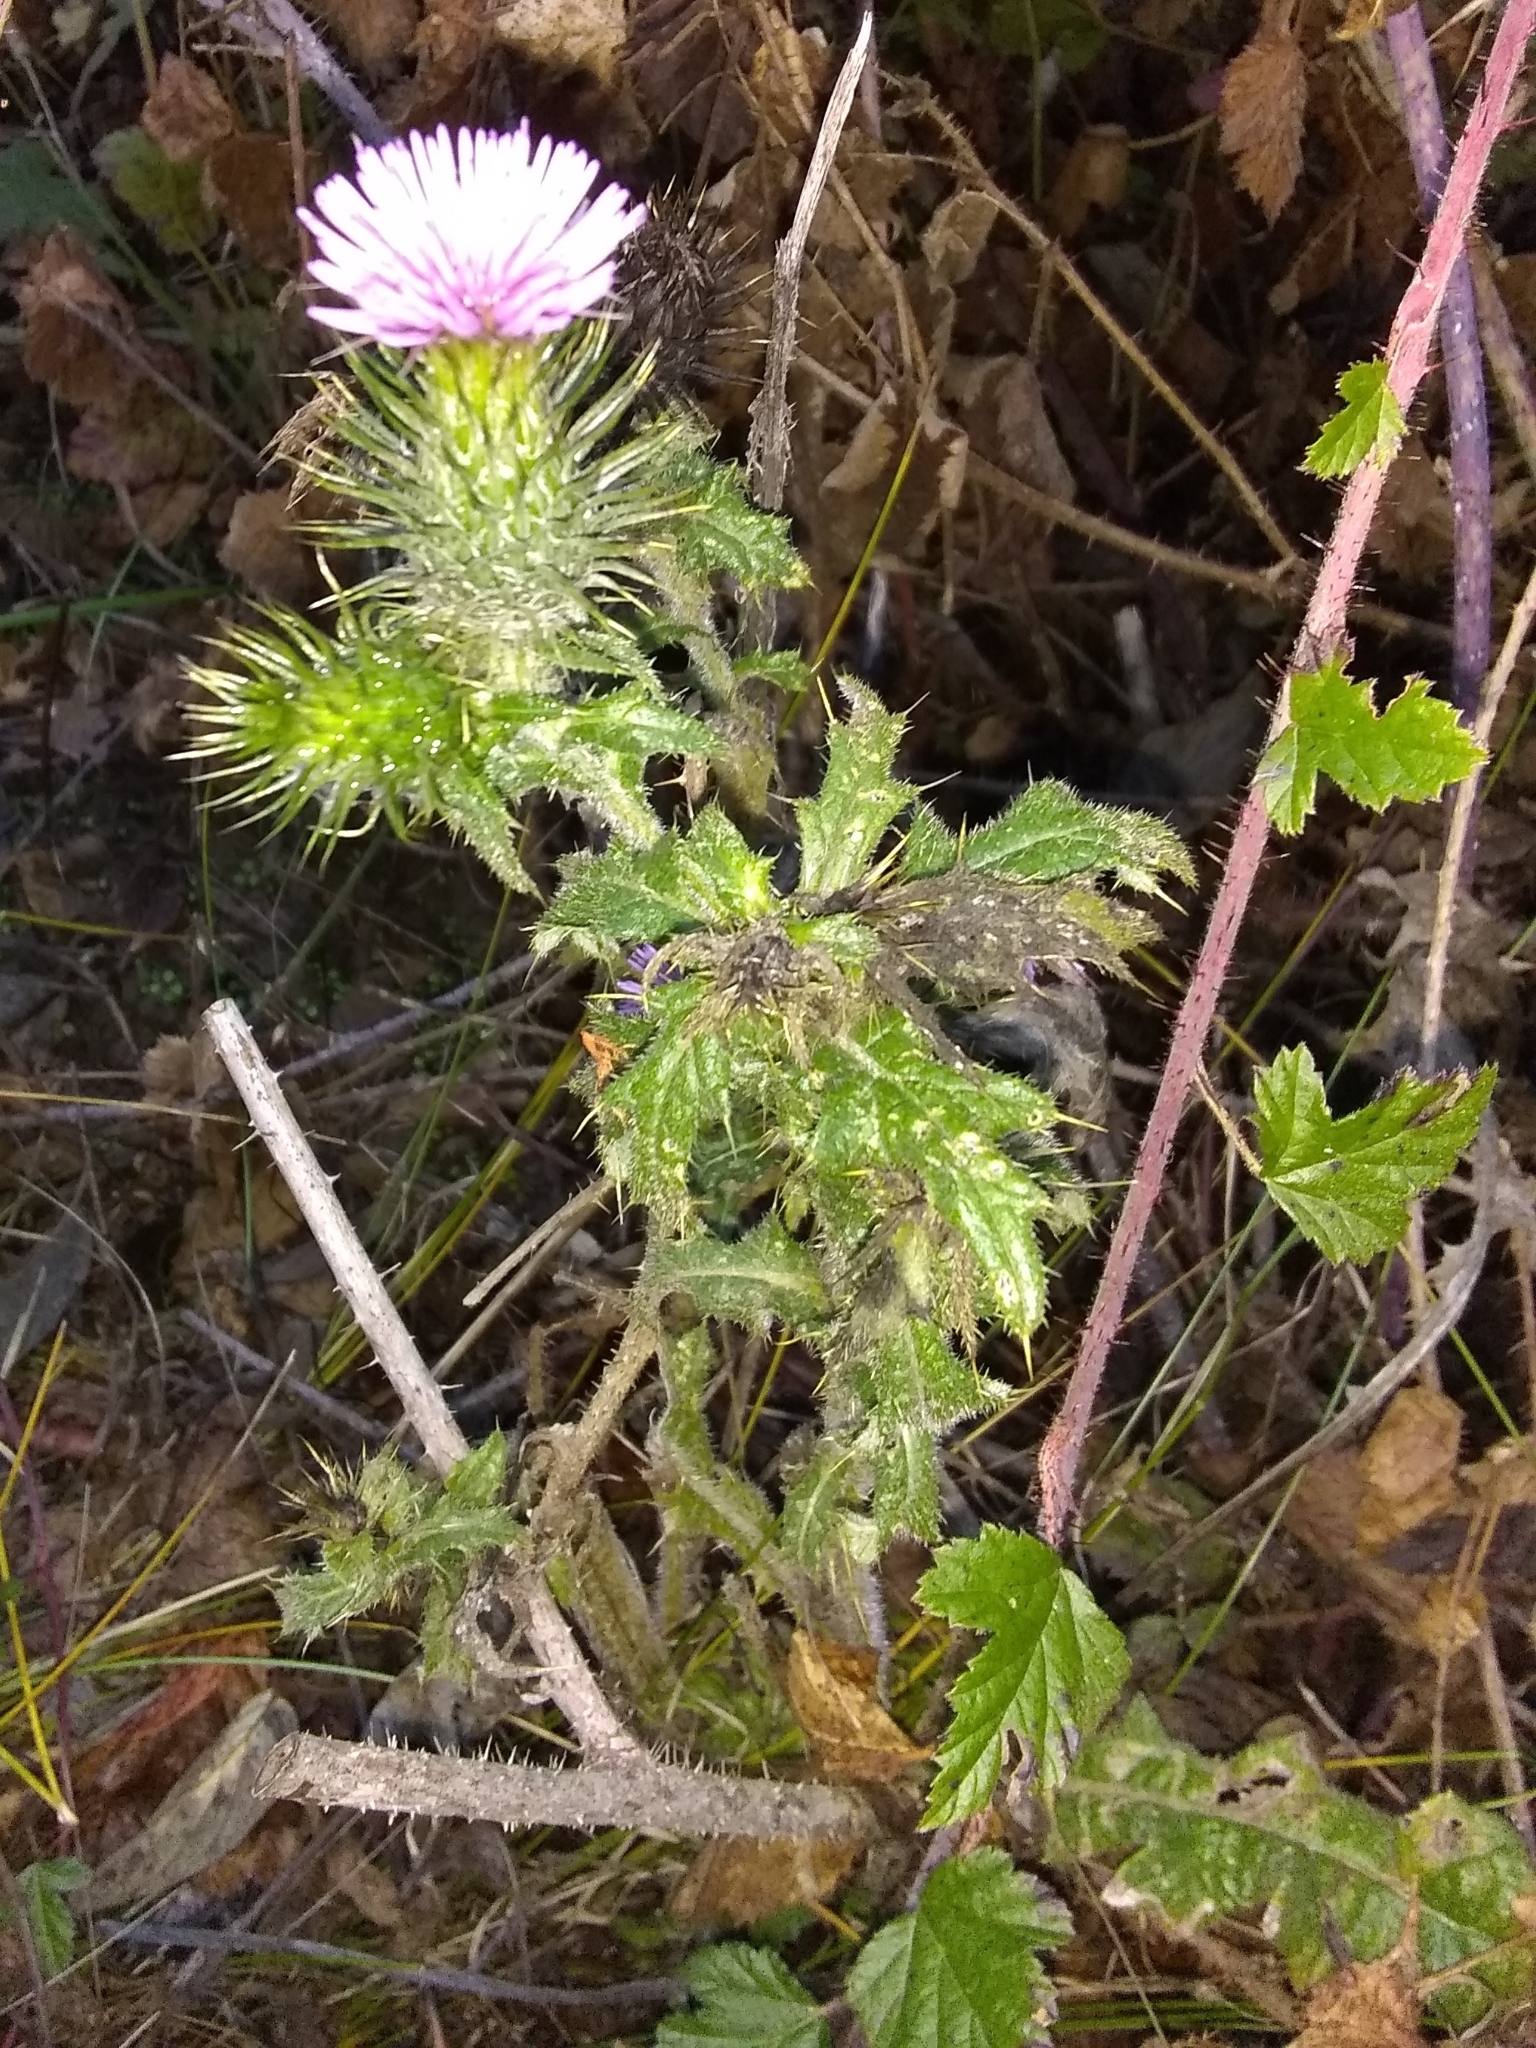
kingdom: Plantae
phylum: Tracheophyta
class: Magnoliopsida
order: Asterales
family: Asteraceae
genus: Cirsium
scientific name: Cirsium vulgare
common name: Bull thistle
